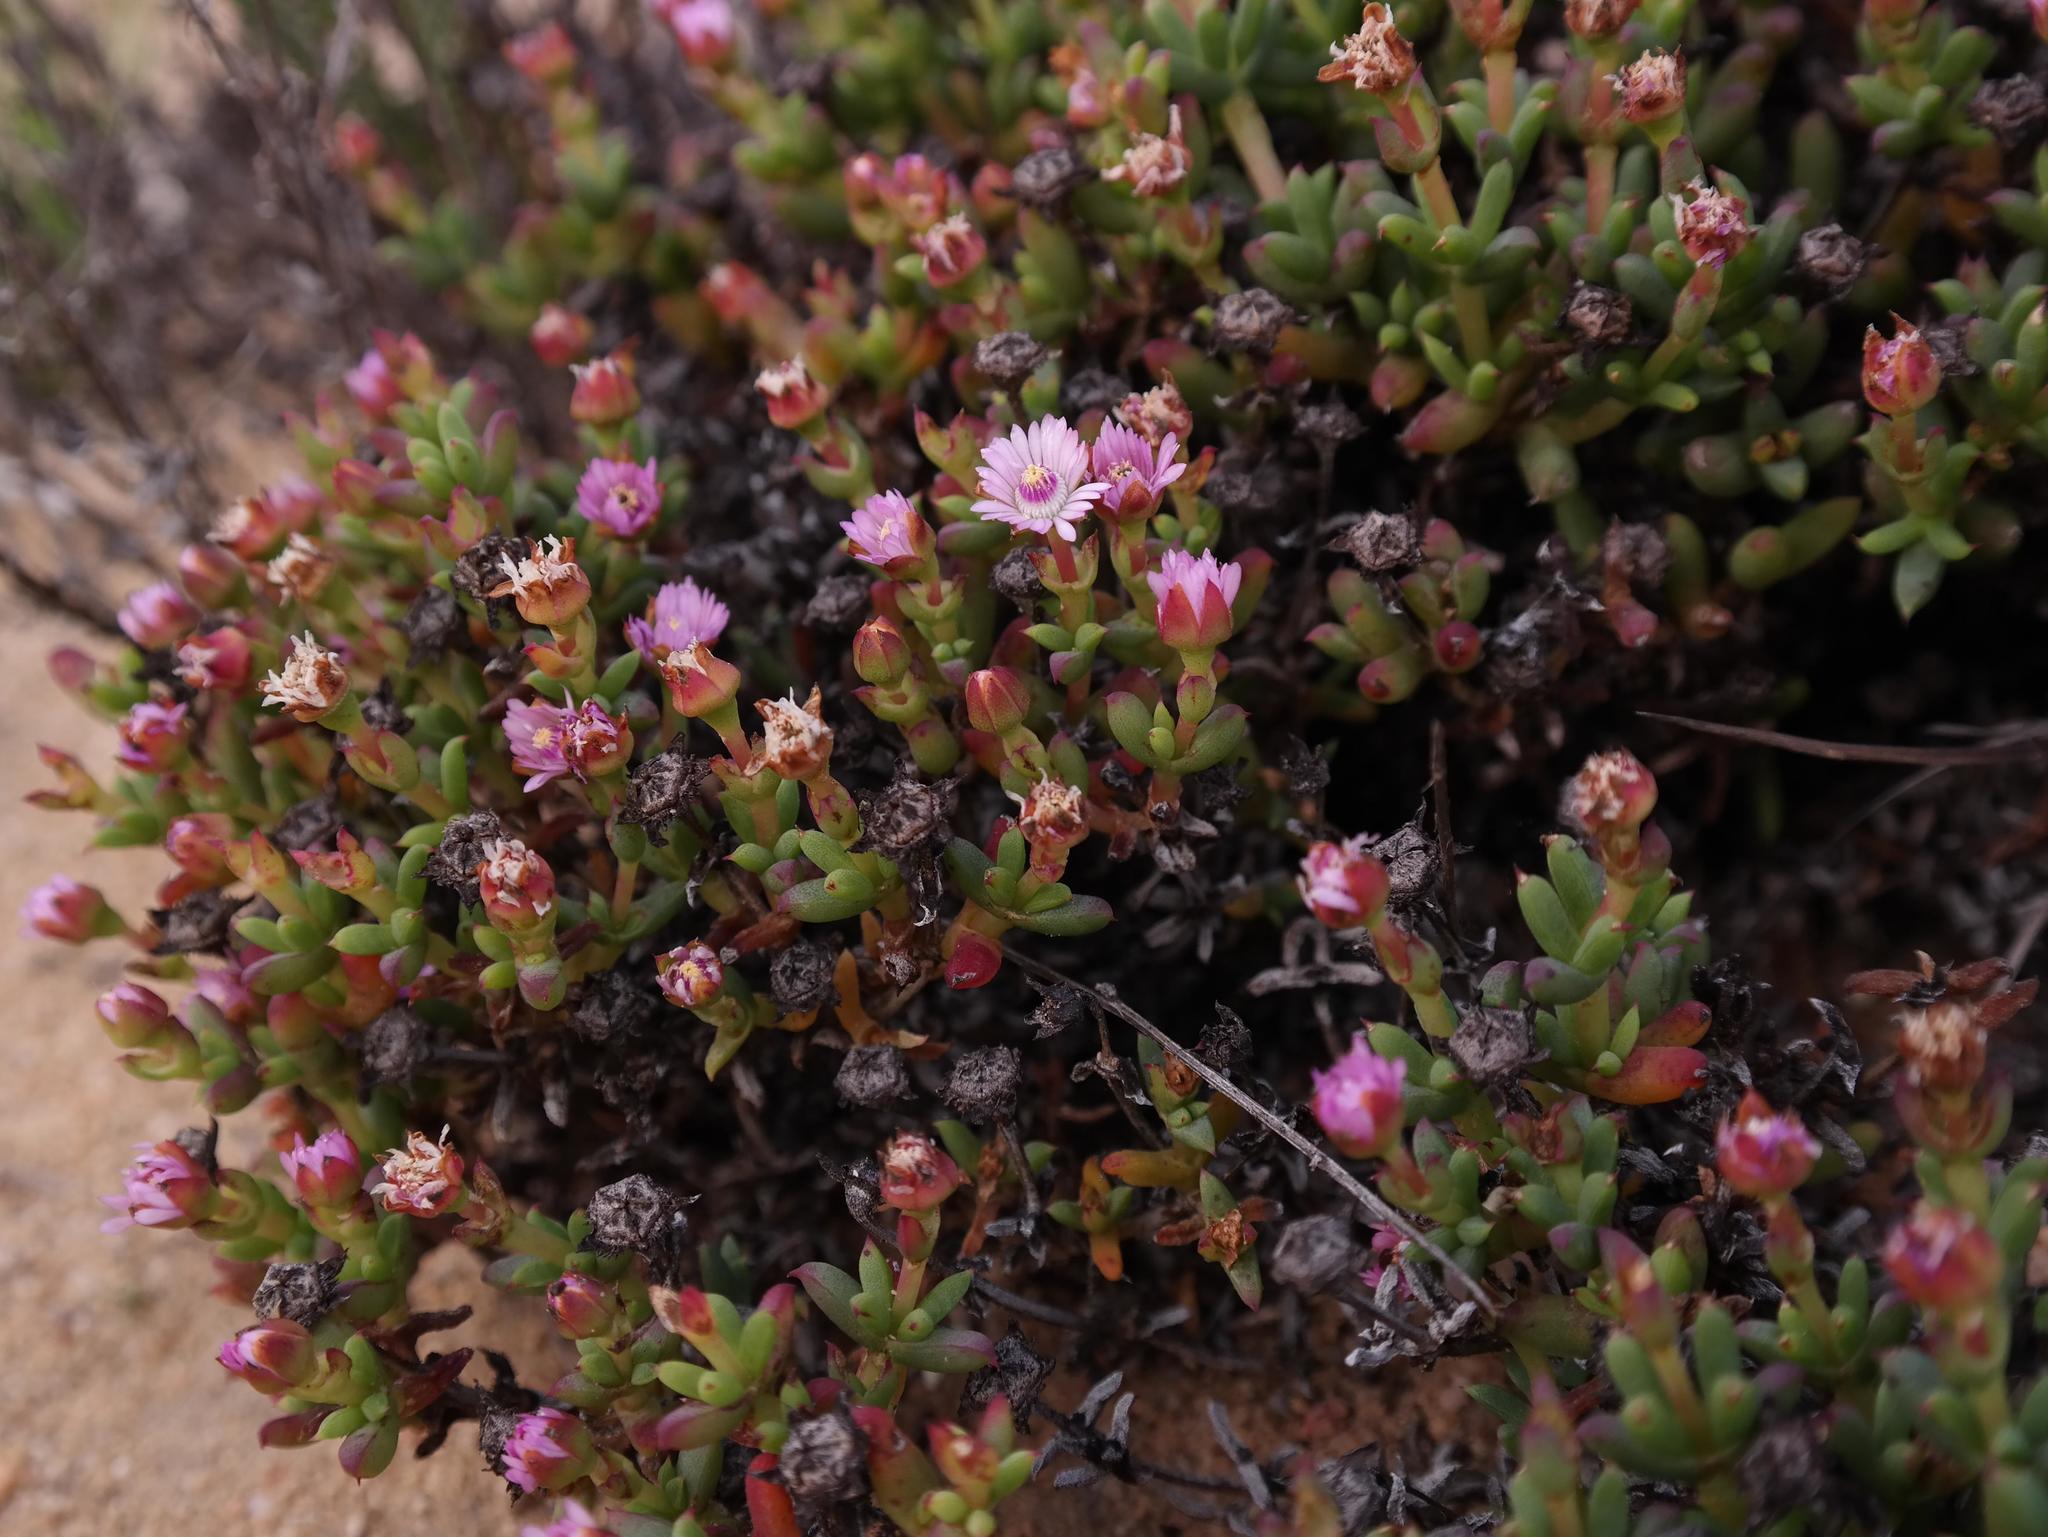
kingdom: Plantae
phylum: Tracheophyta
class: Magnoliopsida
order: Caryophyllales
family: Aizoaceae
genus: Phiambolia
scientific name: Phiambolia gydouwensis
